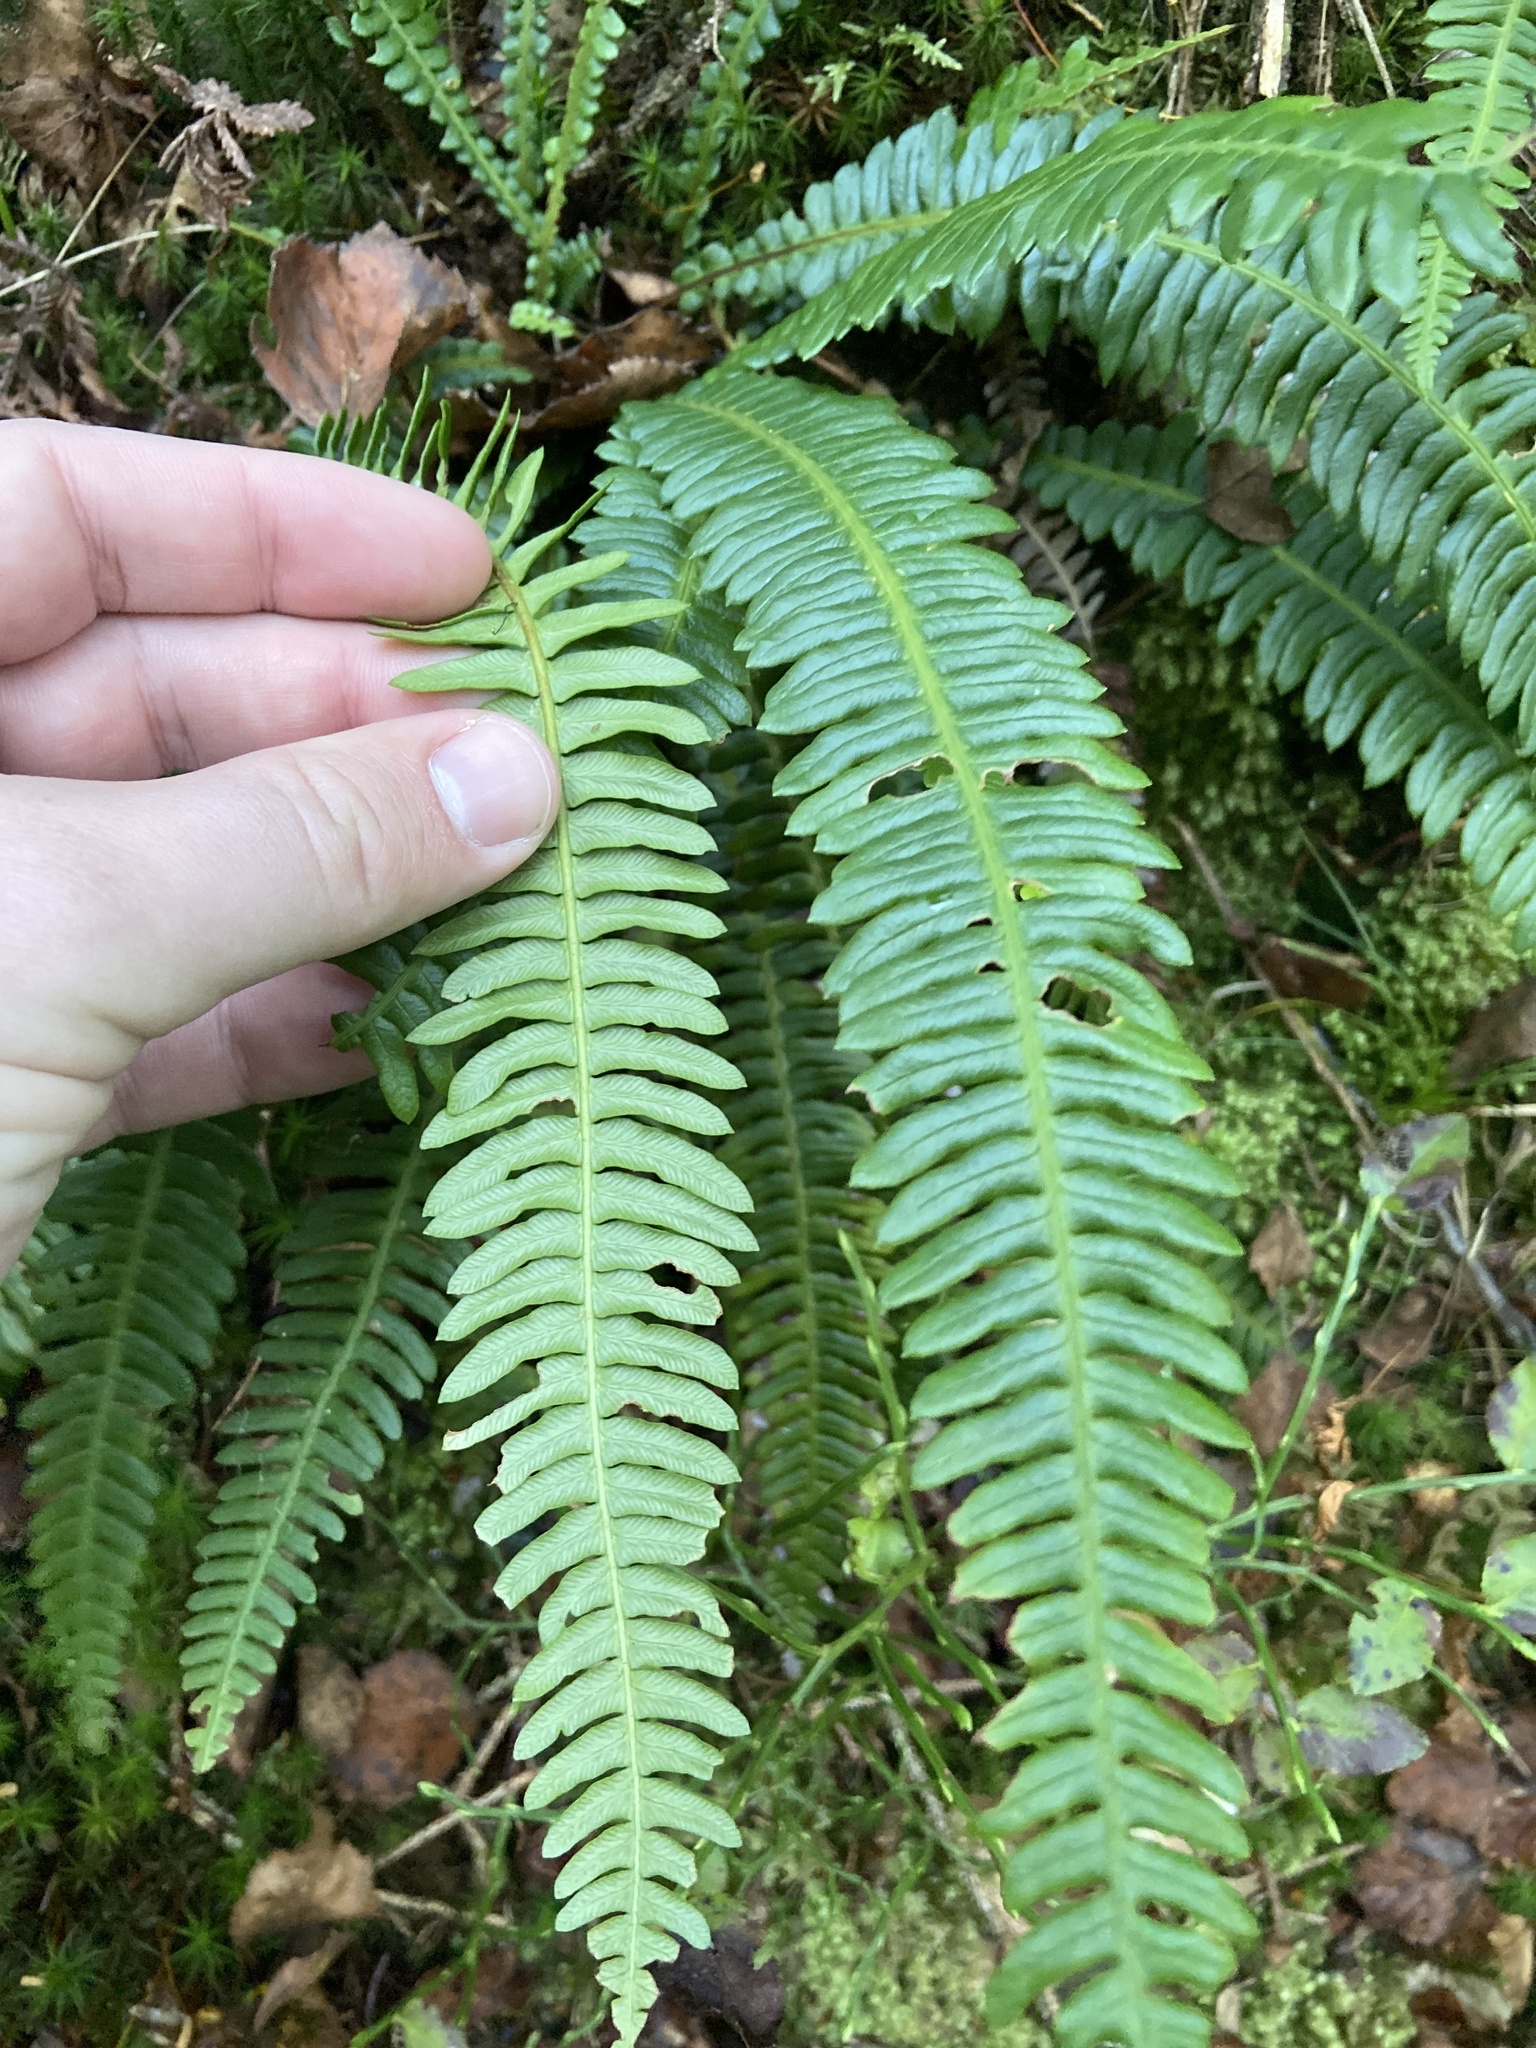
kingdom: Plantae
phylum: Tracheophyta
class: Polypodiopsida
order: Polypodiales
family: Blechnaceae
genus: Struthiopteris
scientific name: Struthiopteris spicant
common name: Deer fern
